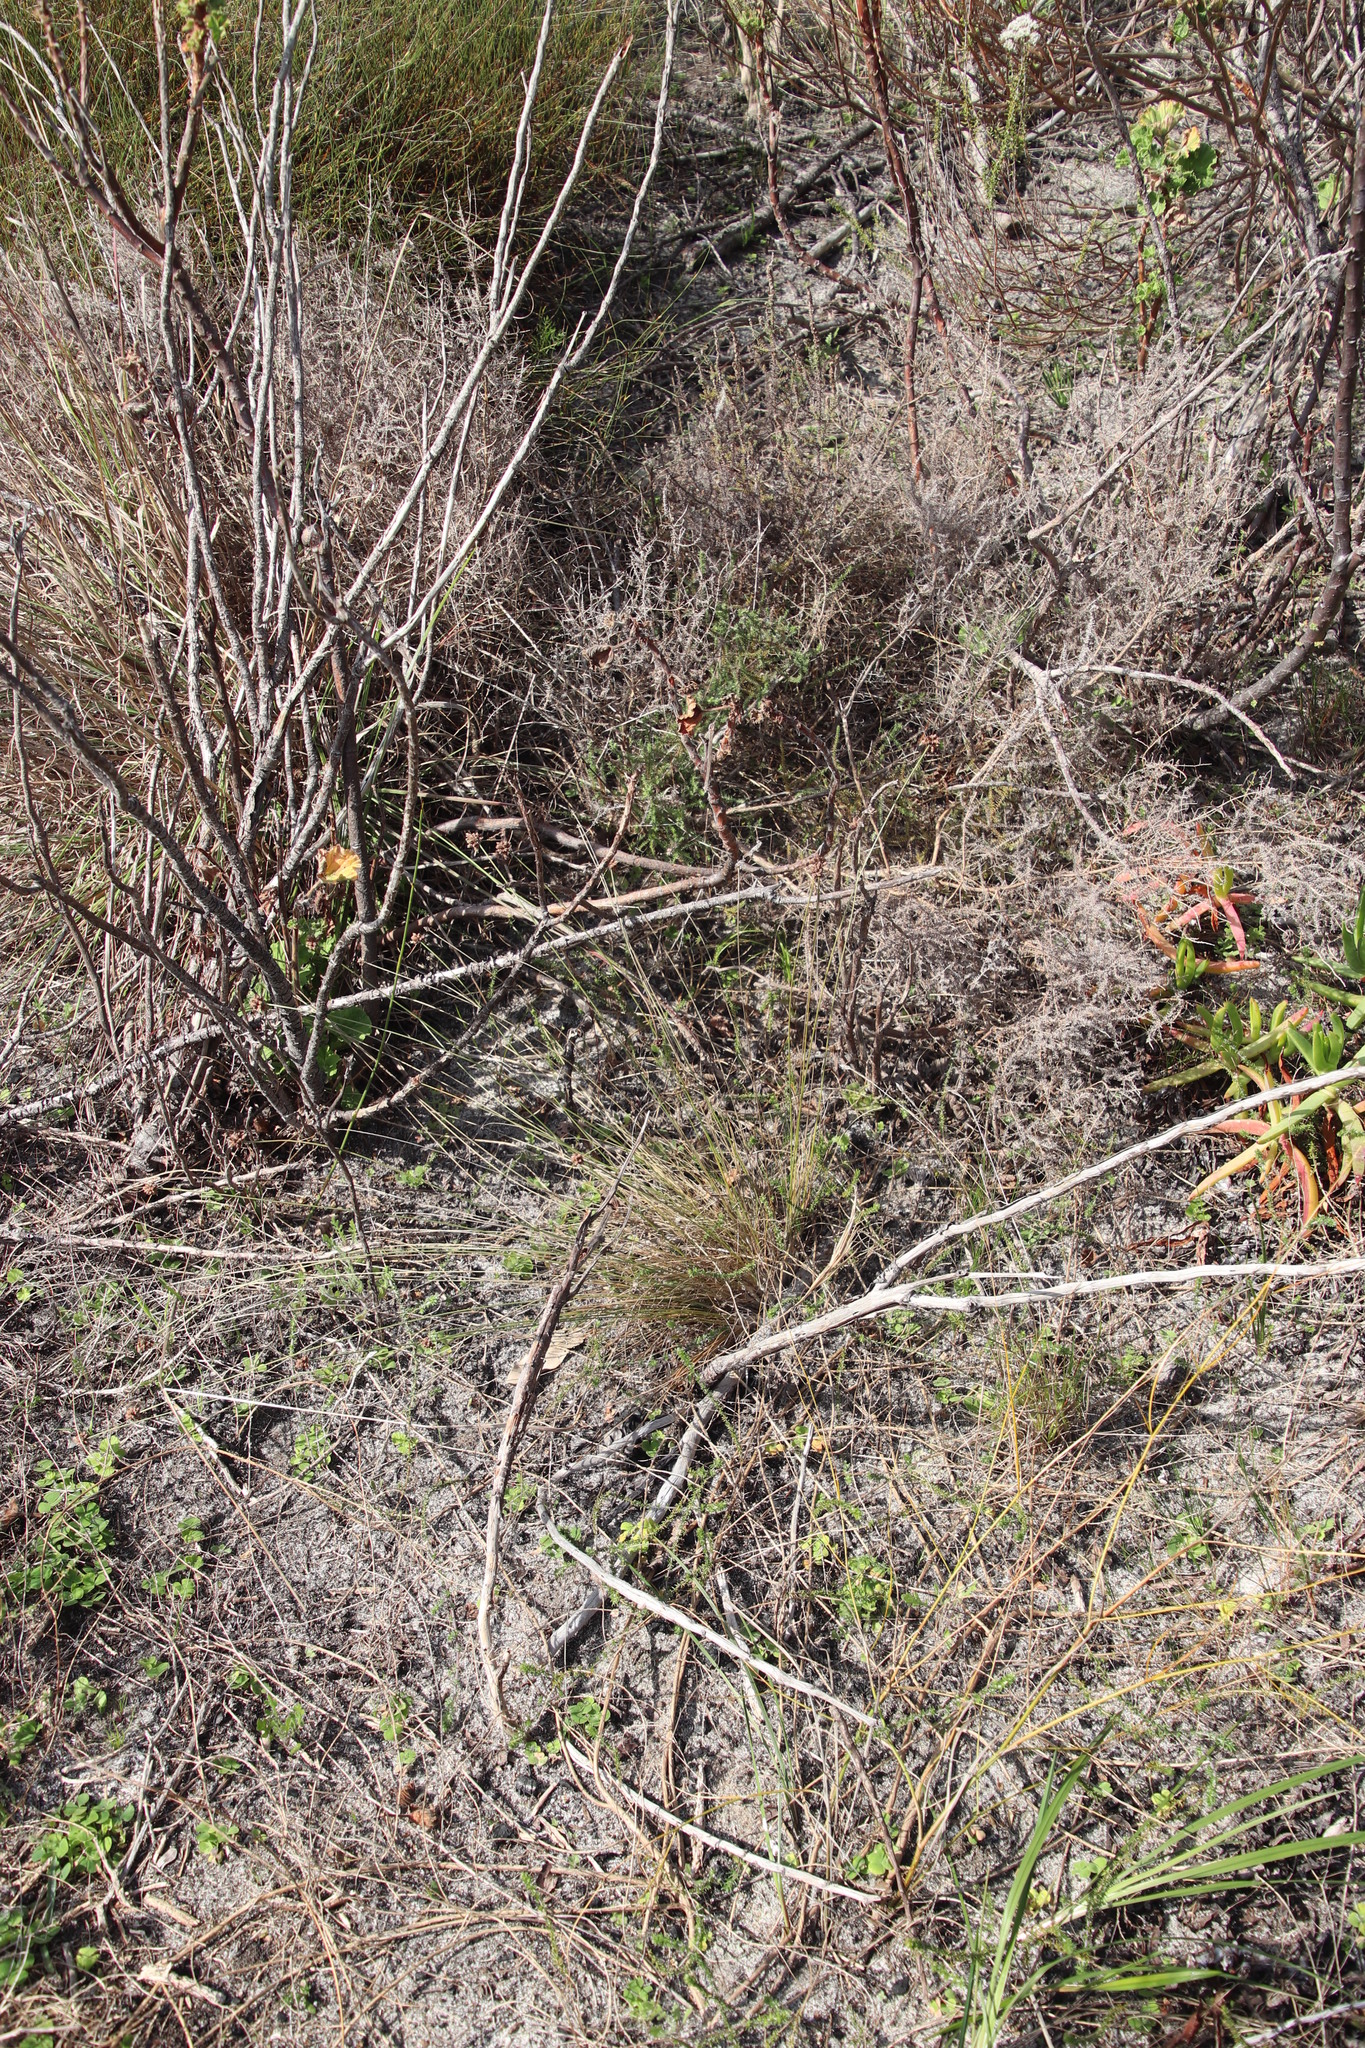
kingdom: Plantae
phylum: Tracheophyta
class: Liliopsida
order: Poales
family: Cyperaceae
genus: Ficinia
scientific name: Ficinia ecklonea
